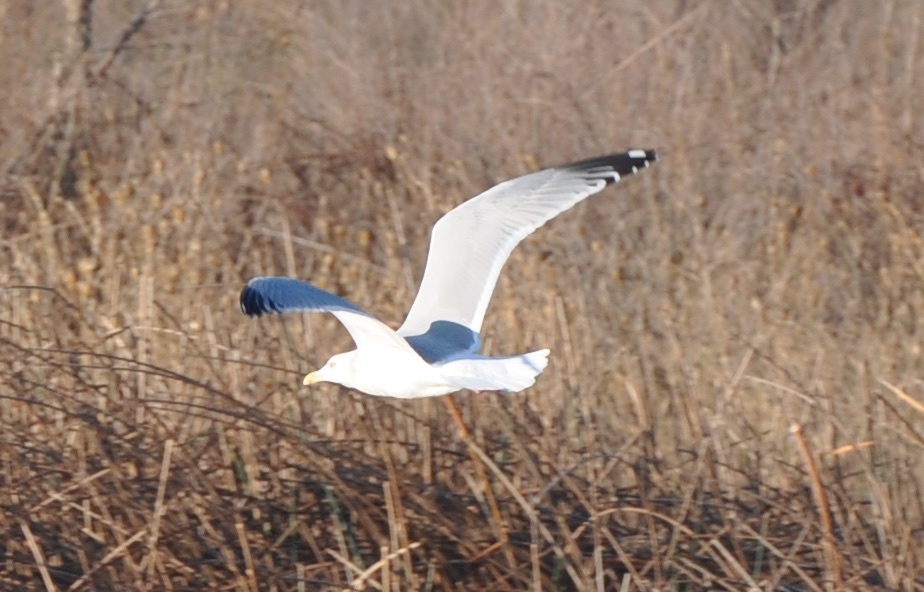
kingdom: Animalia
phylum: Chordata
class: Aves
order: Charadriiformes
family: Laridae
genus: Larus
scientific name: Larus delawarensis
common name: Ring-billed gull
